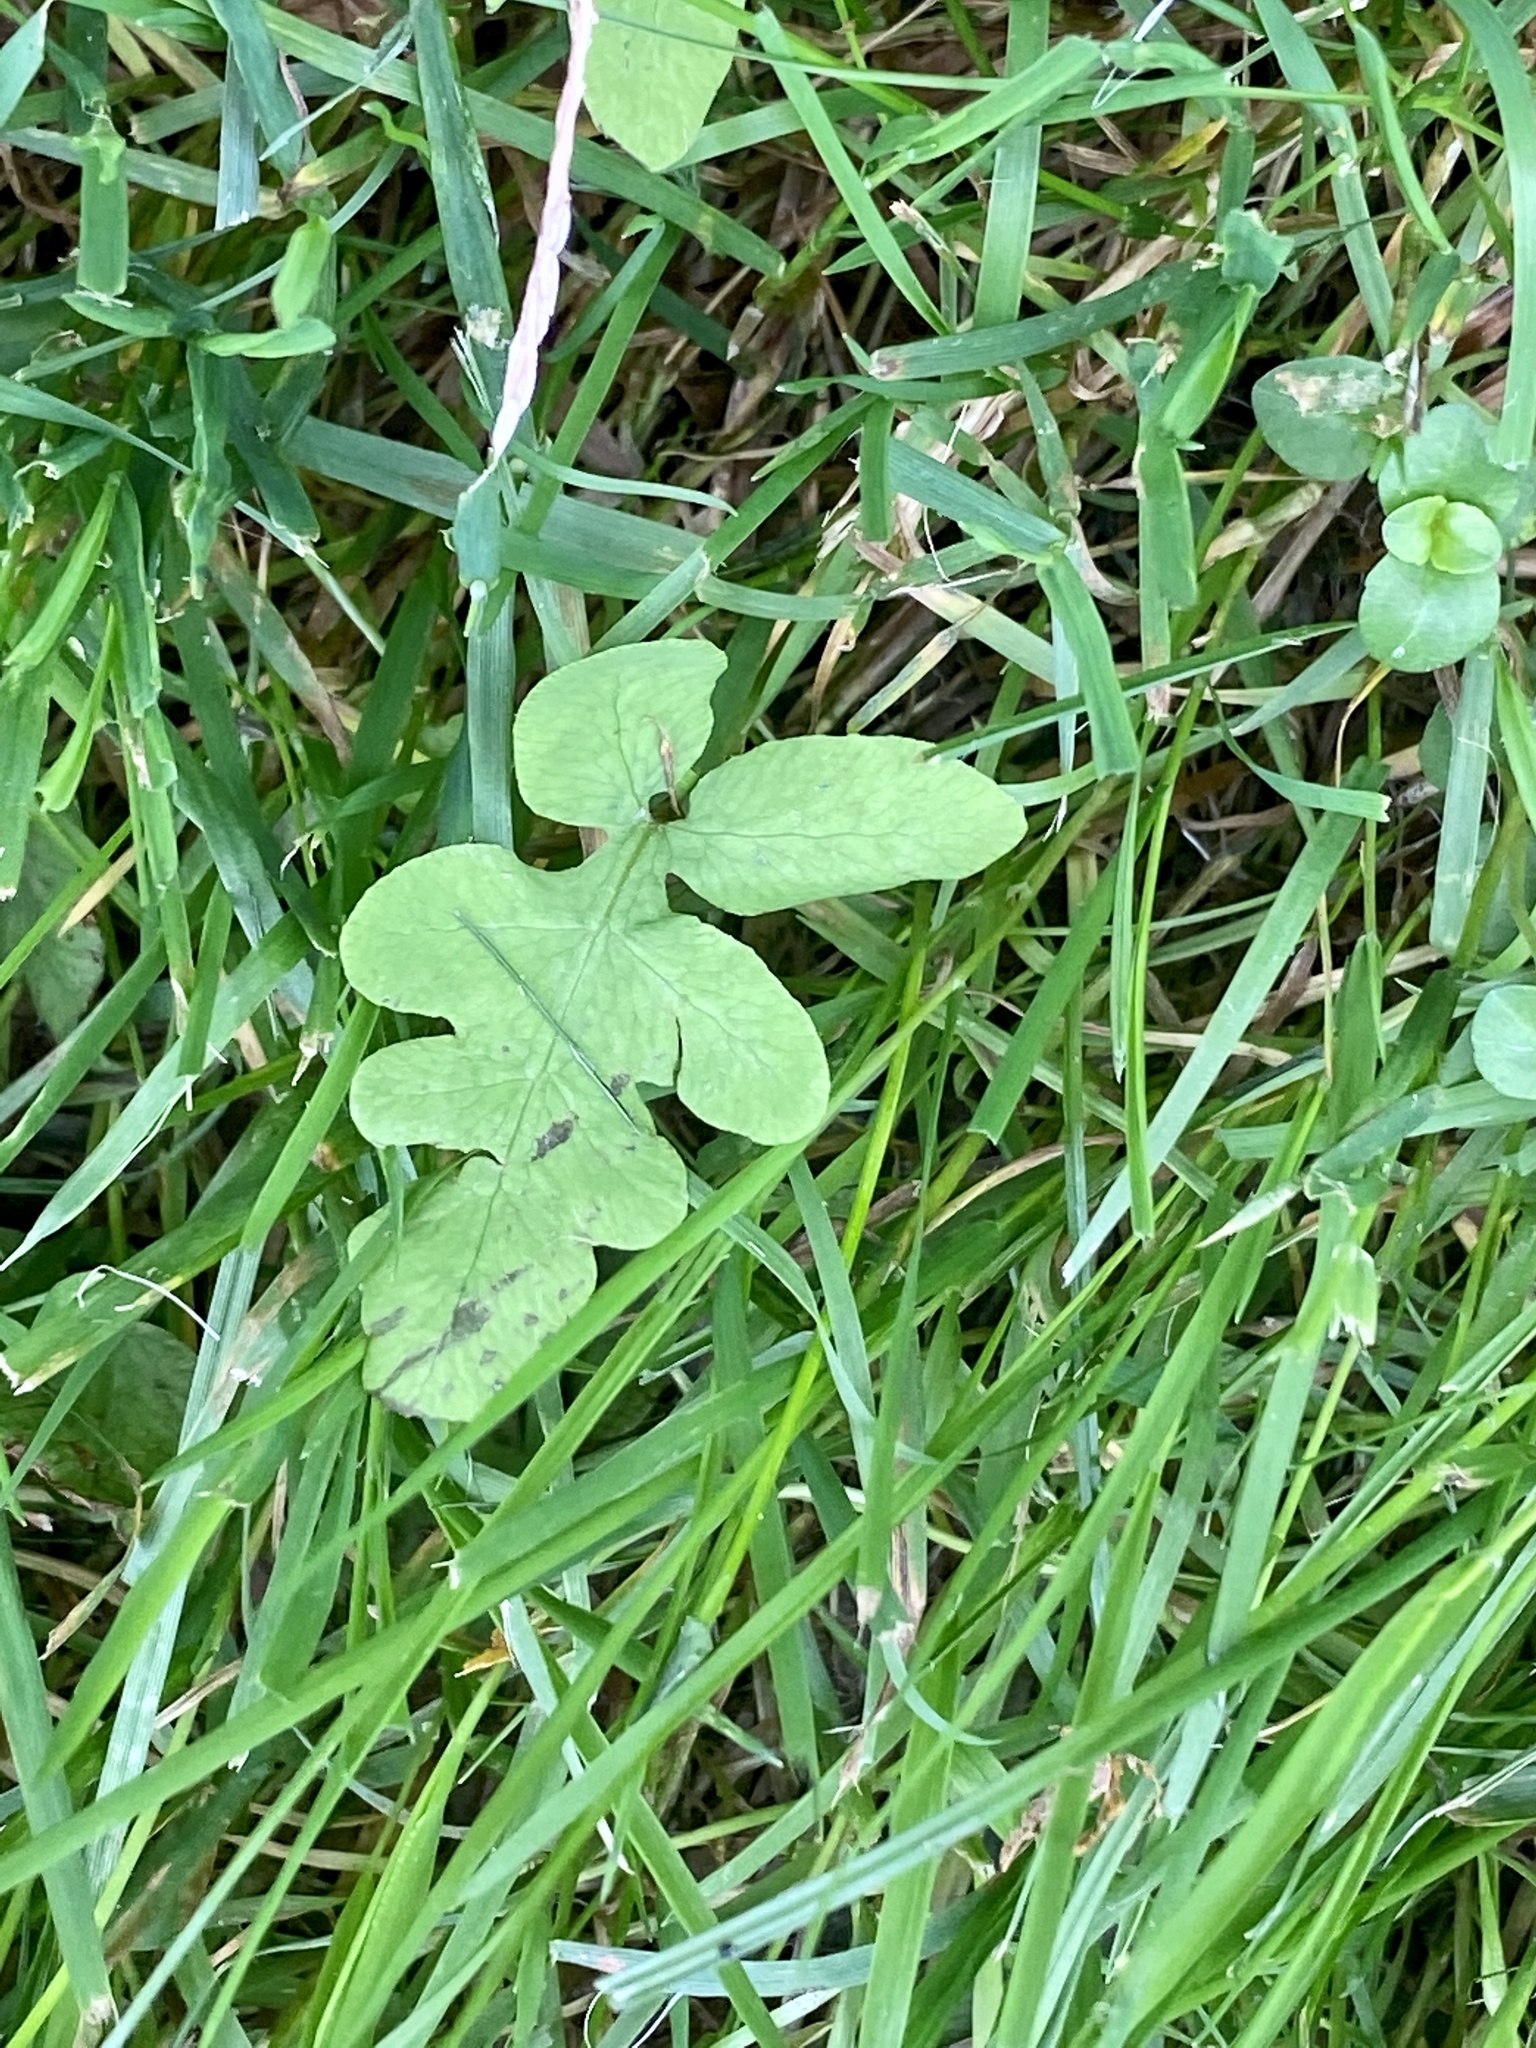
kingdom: Plantae
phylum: Tracheophyta
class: Polypodiopsida
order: Polypodiales
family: Onocleaceae
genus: Onoclea
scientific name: Onoclea sensibilis
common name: Sensitive fern
